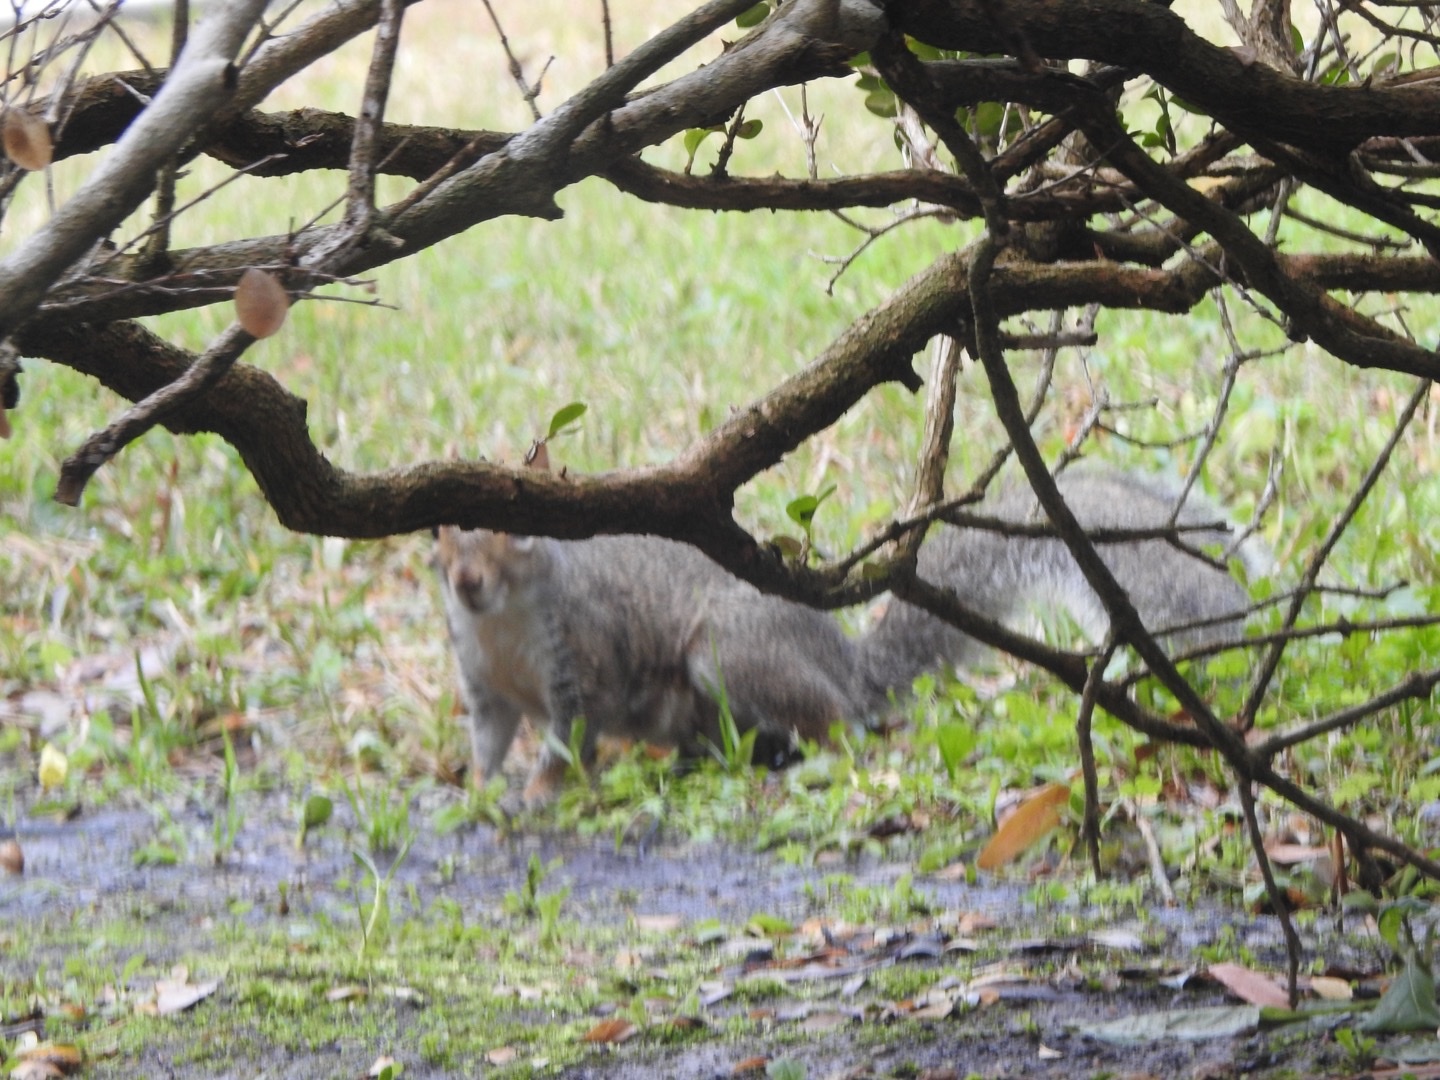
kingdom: Animalia
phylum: Chordata
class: Mammalia
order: Rodentia
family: Sciuridae
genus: Sciurus
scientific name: Sciurus carolinensis
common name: Eastern gray squirrel
